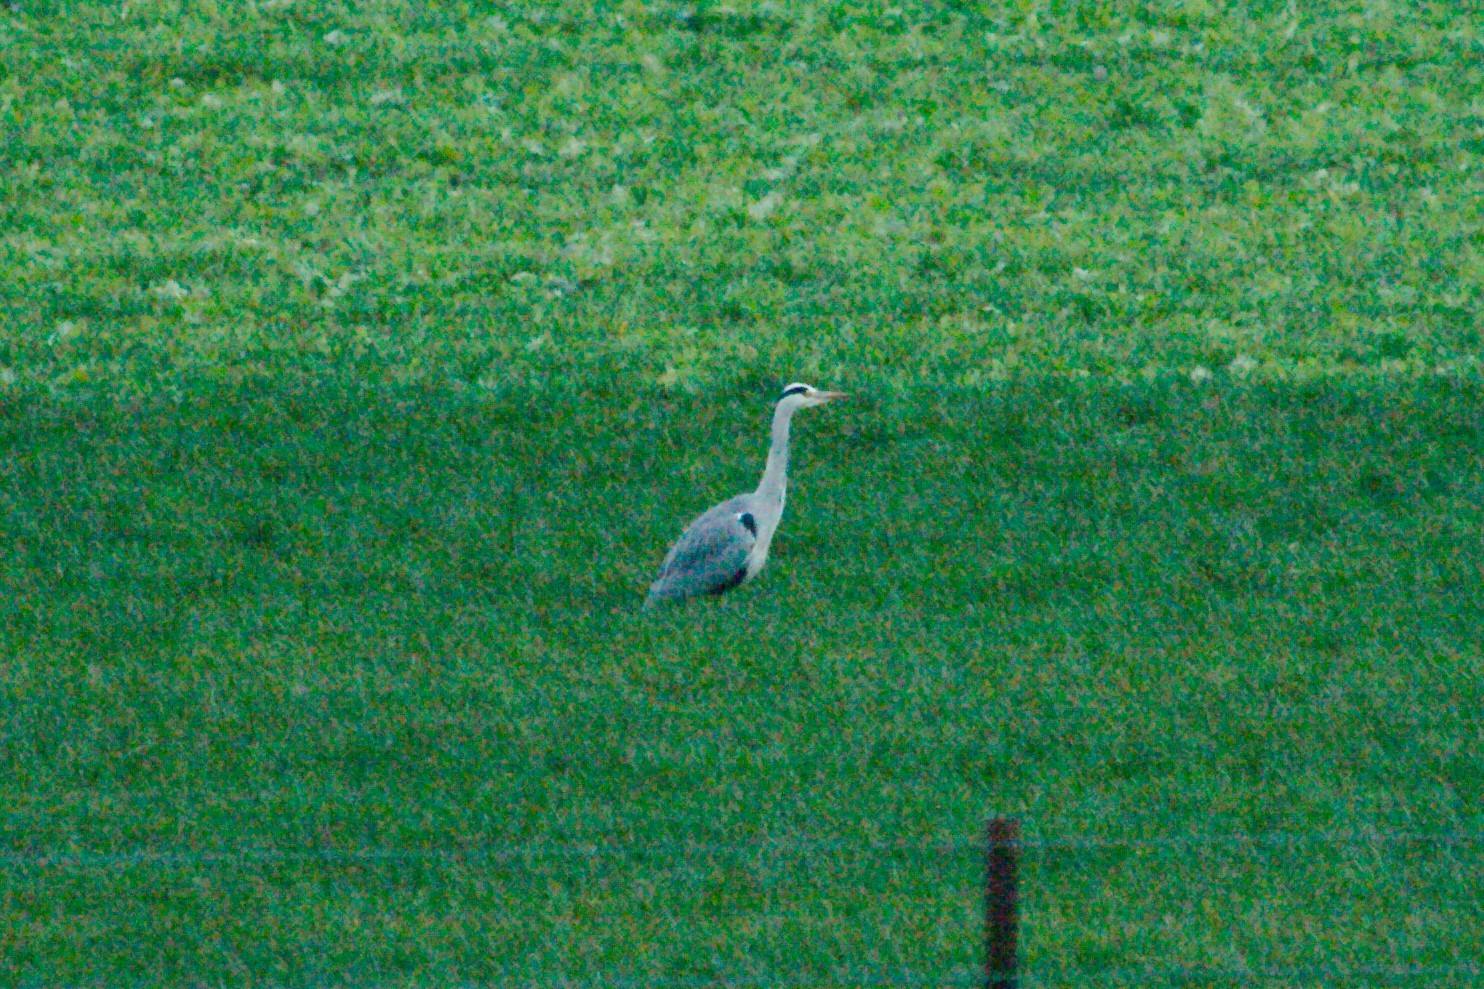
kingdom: Animalia
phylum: Chordata
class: Aves
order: Pelecaniformes
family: Ardeidae
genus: Ardea
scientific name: Ardea cinerea
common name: Grey heron
